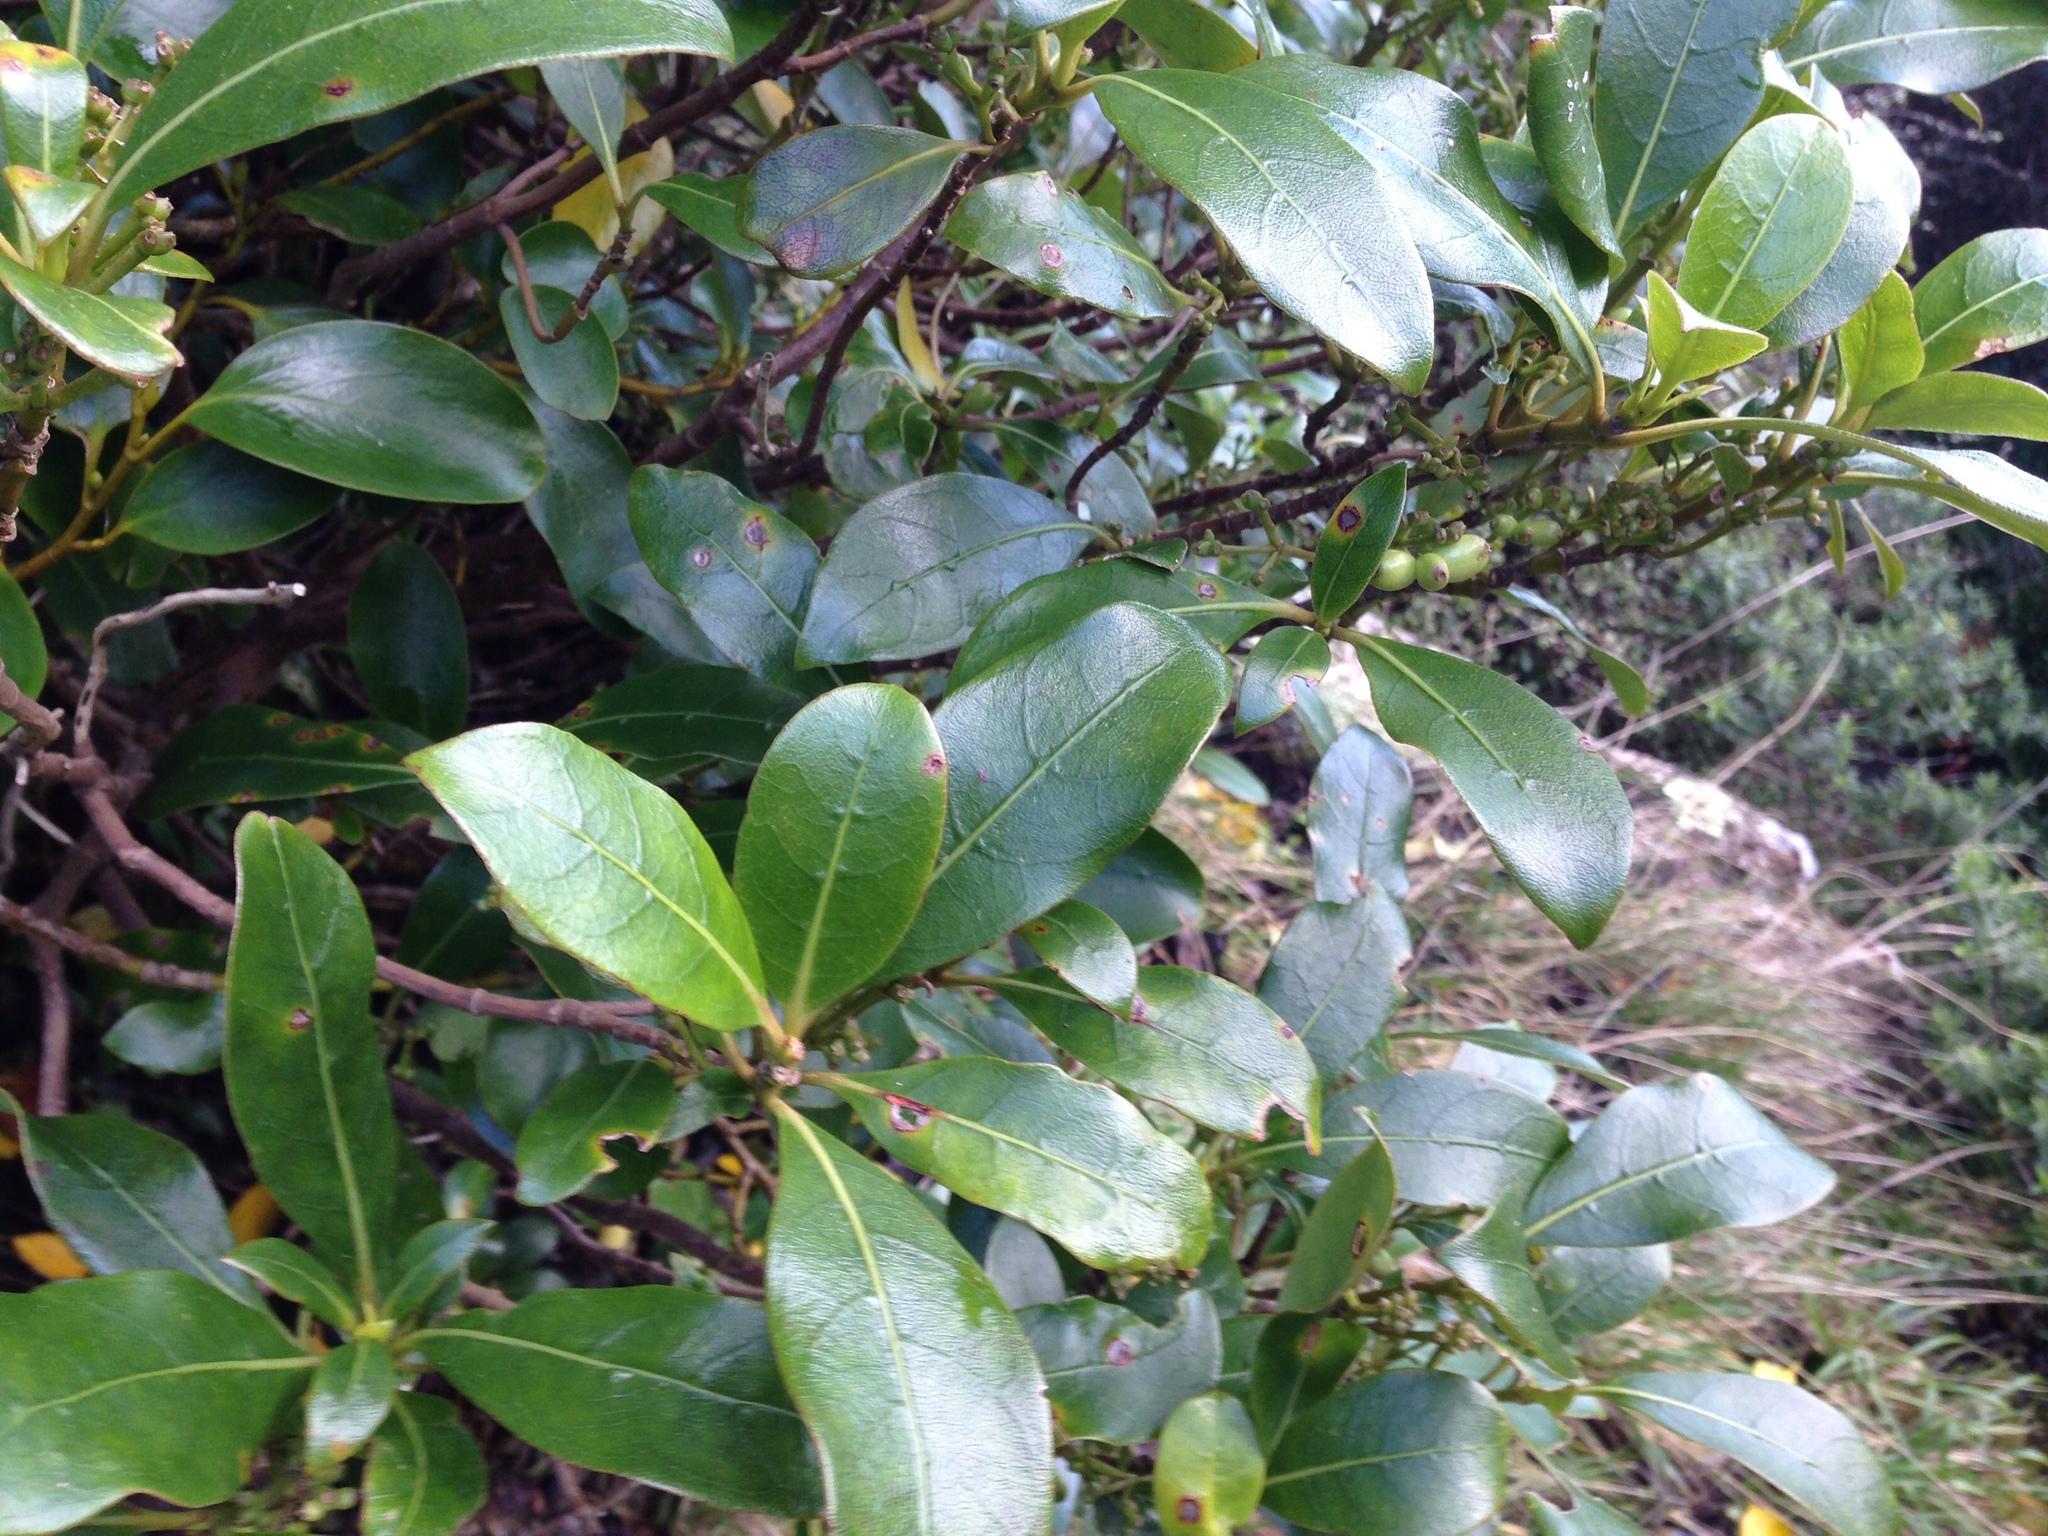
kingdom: Plantae
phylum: Tracheophyta
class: Magnoliopsida
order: Gentianales
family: Rubiaceae
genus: Coprosma
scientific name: Coprosma lucida
